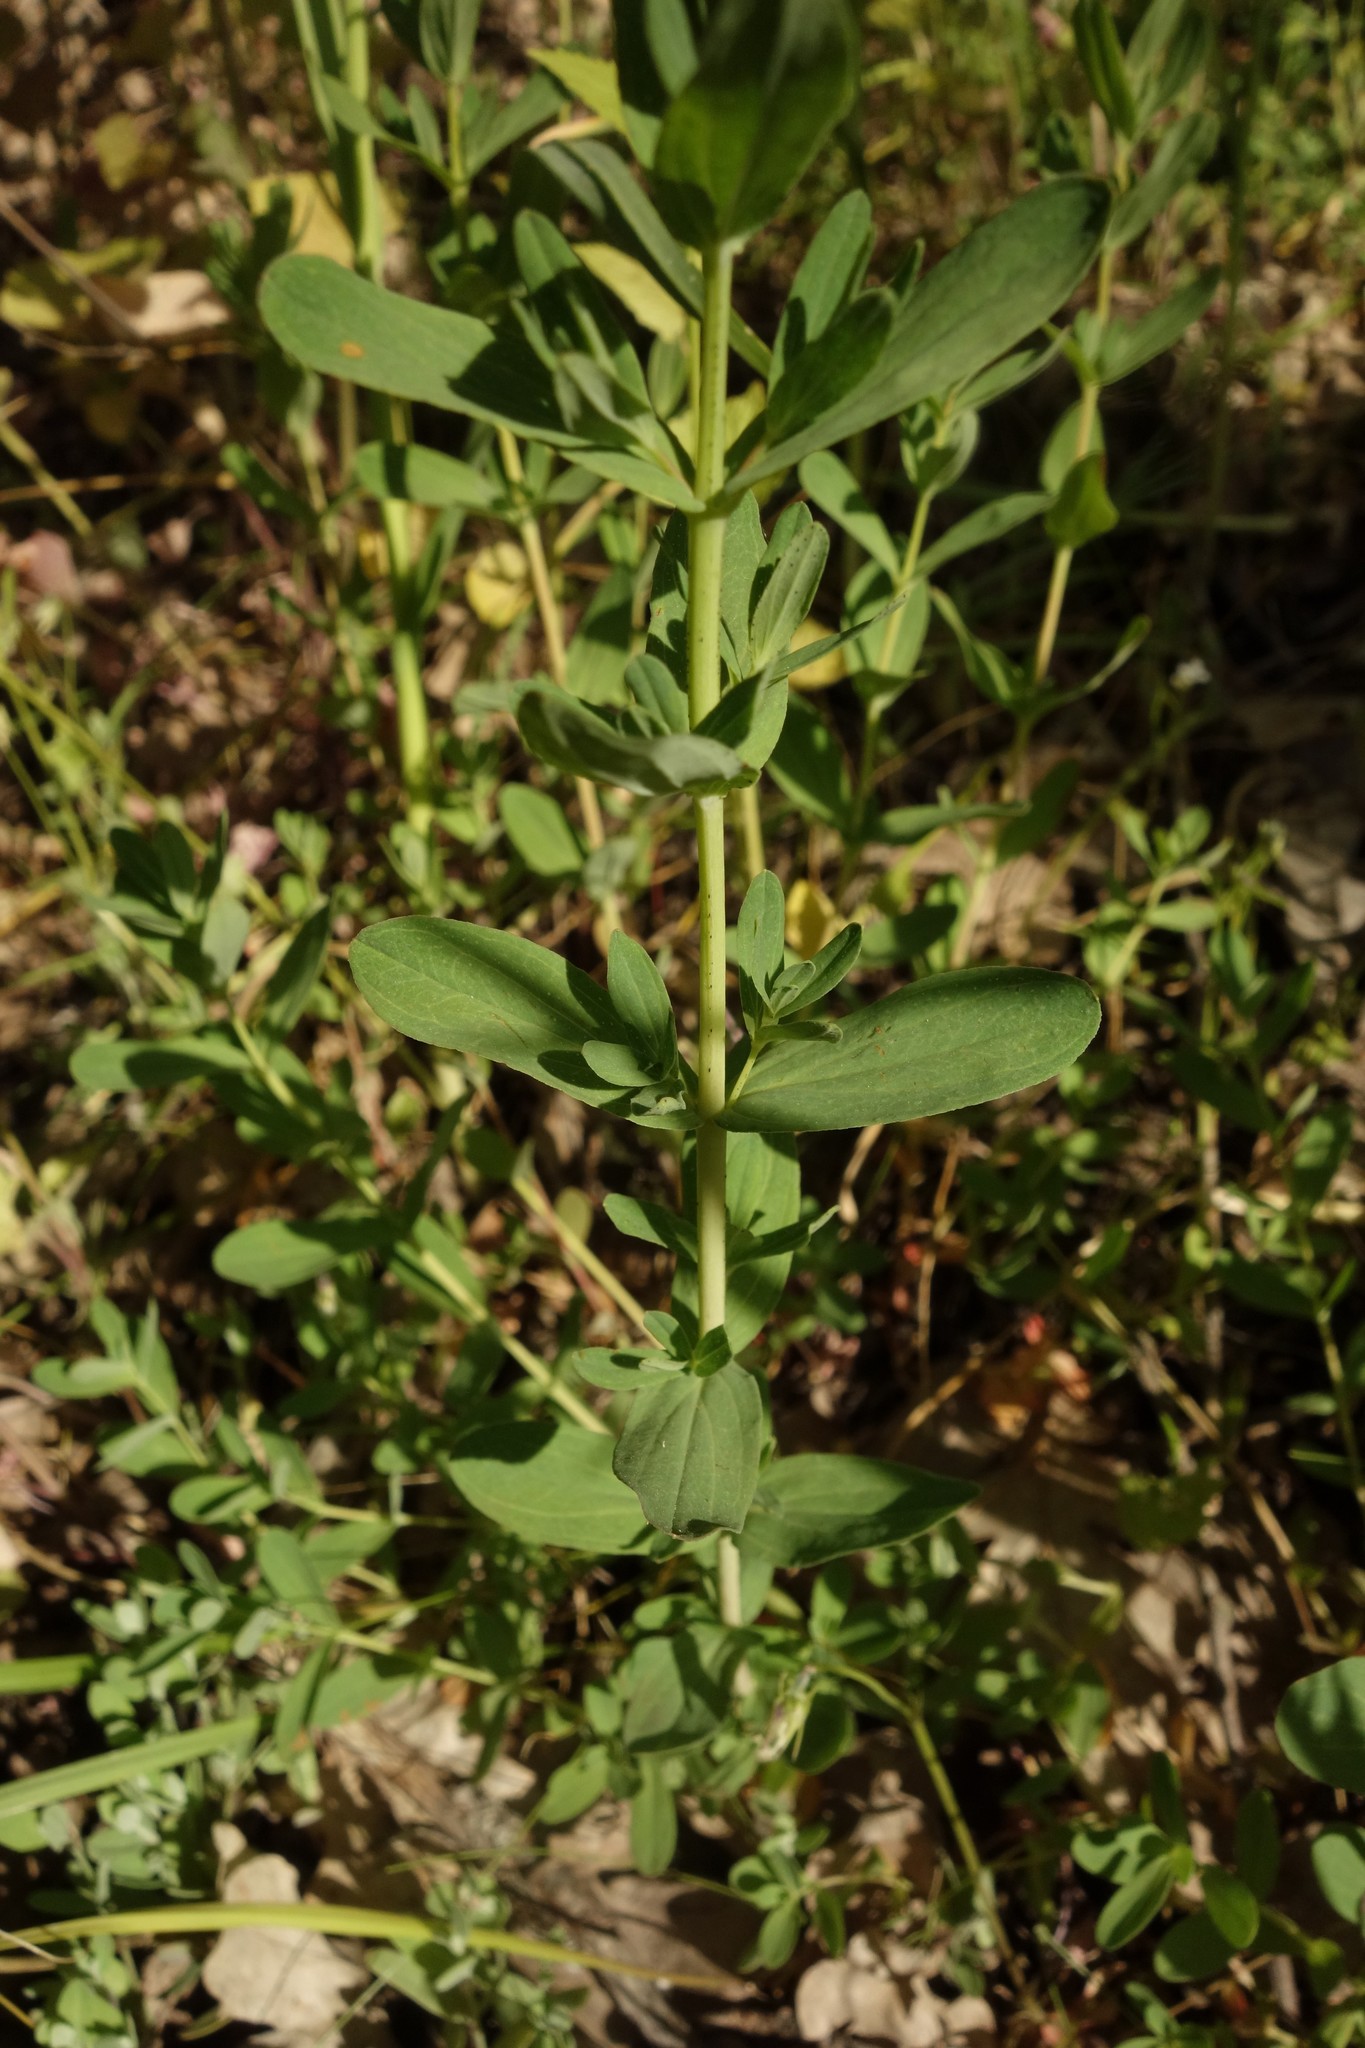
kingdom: Plantae
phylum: Tracheophyta
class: Magnoliopsida
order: Malpighiales
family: Hypericaceae
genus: Hypericum
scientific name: Hypericum perforatum
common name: Common st. johnswort
